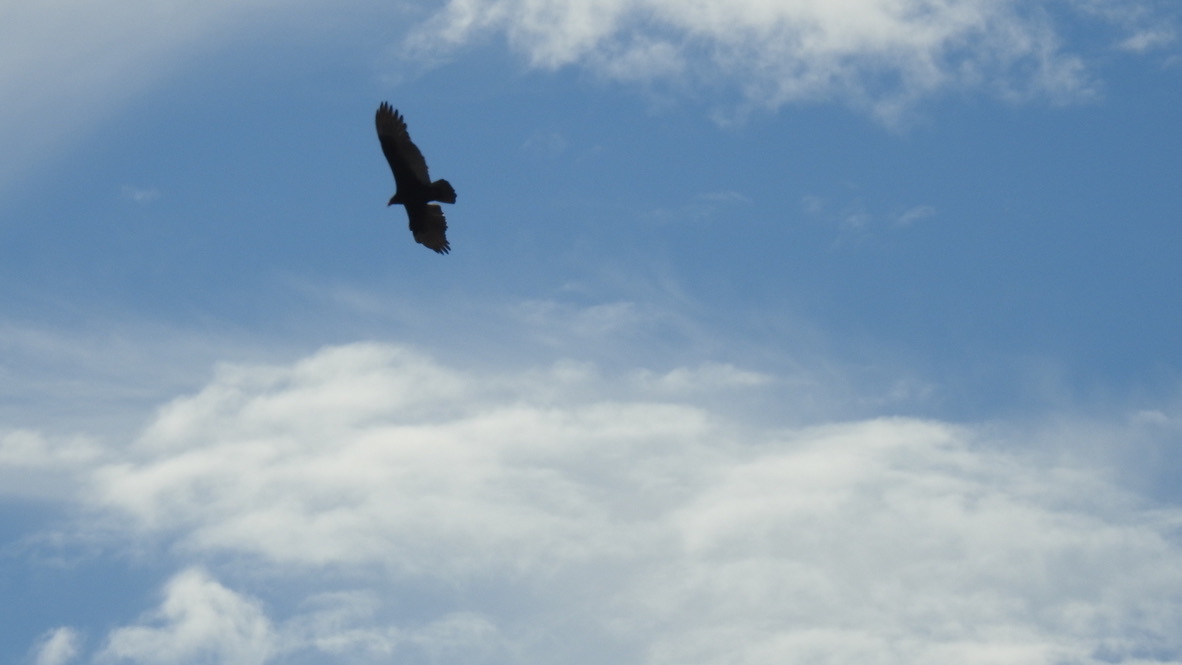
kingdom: Animalia
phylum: Chordata
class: Aves
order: Accipitriformes
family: Cathartidae
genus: Cathartes
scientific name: Cathartes aura
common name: Turkey vulture
